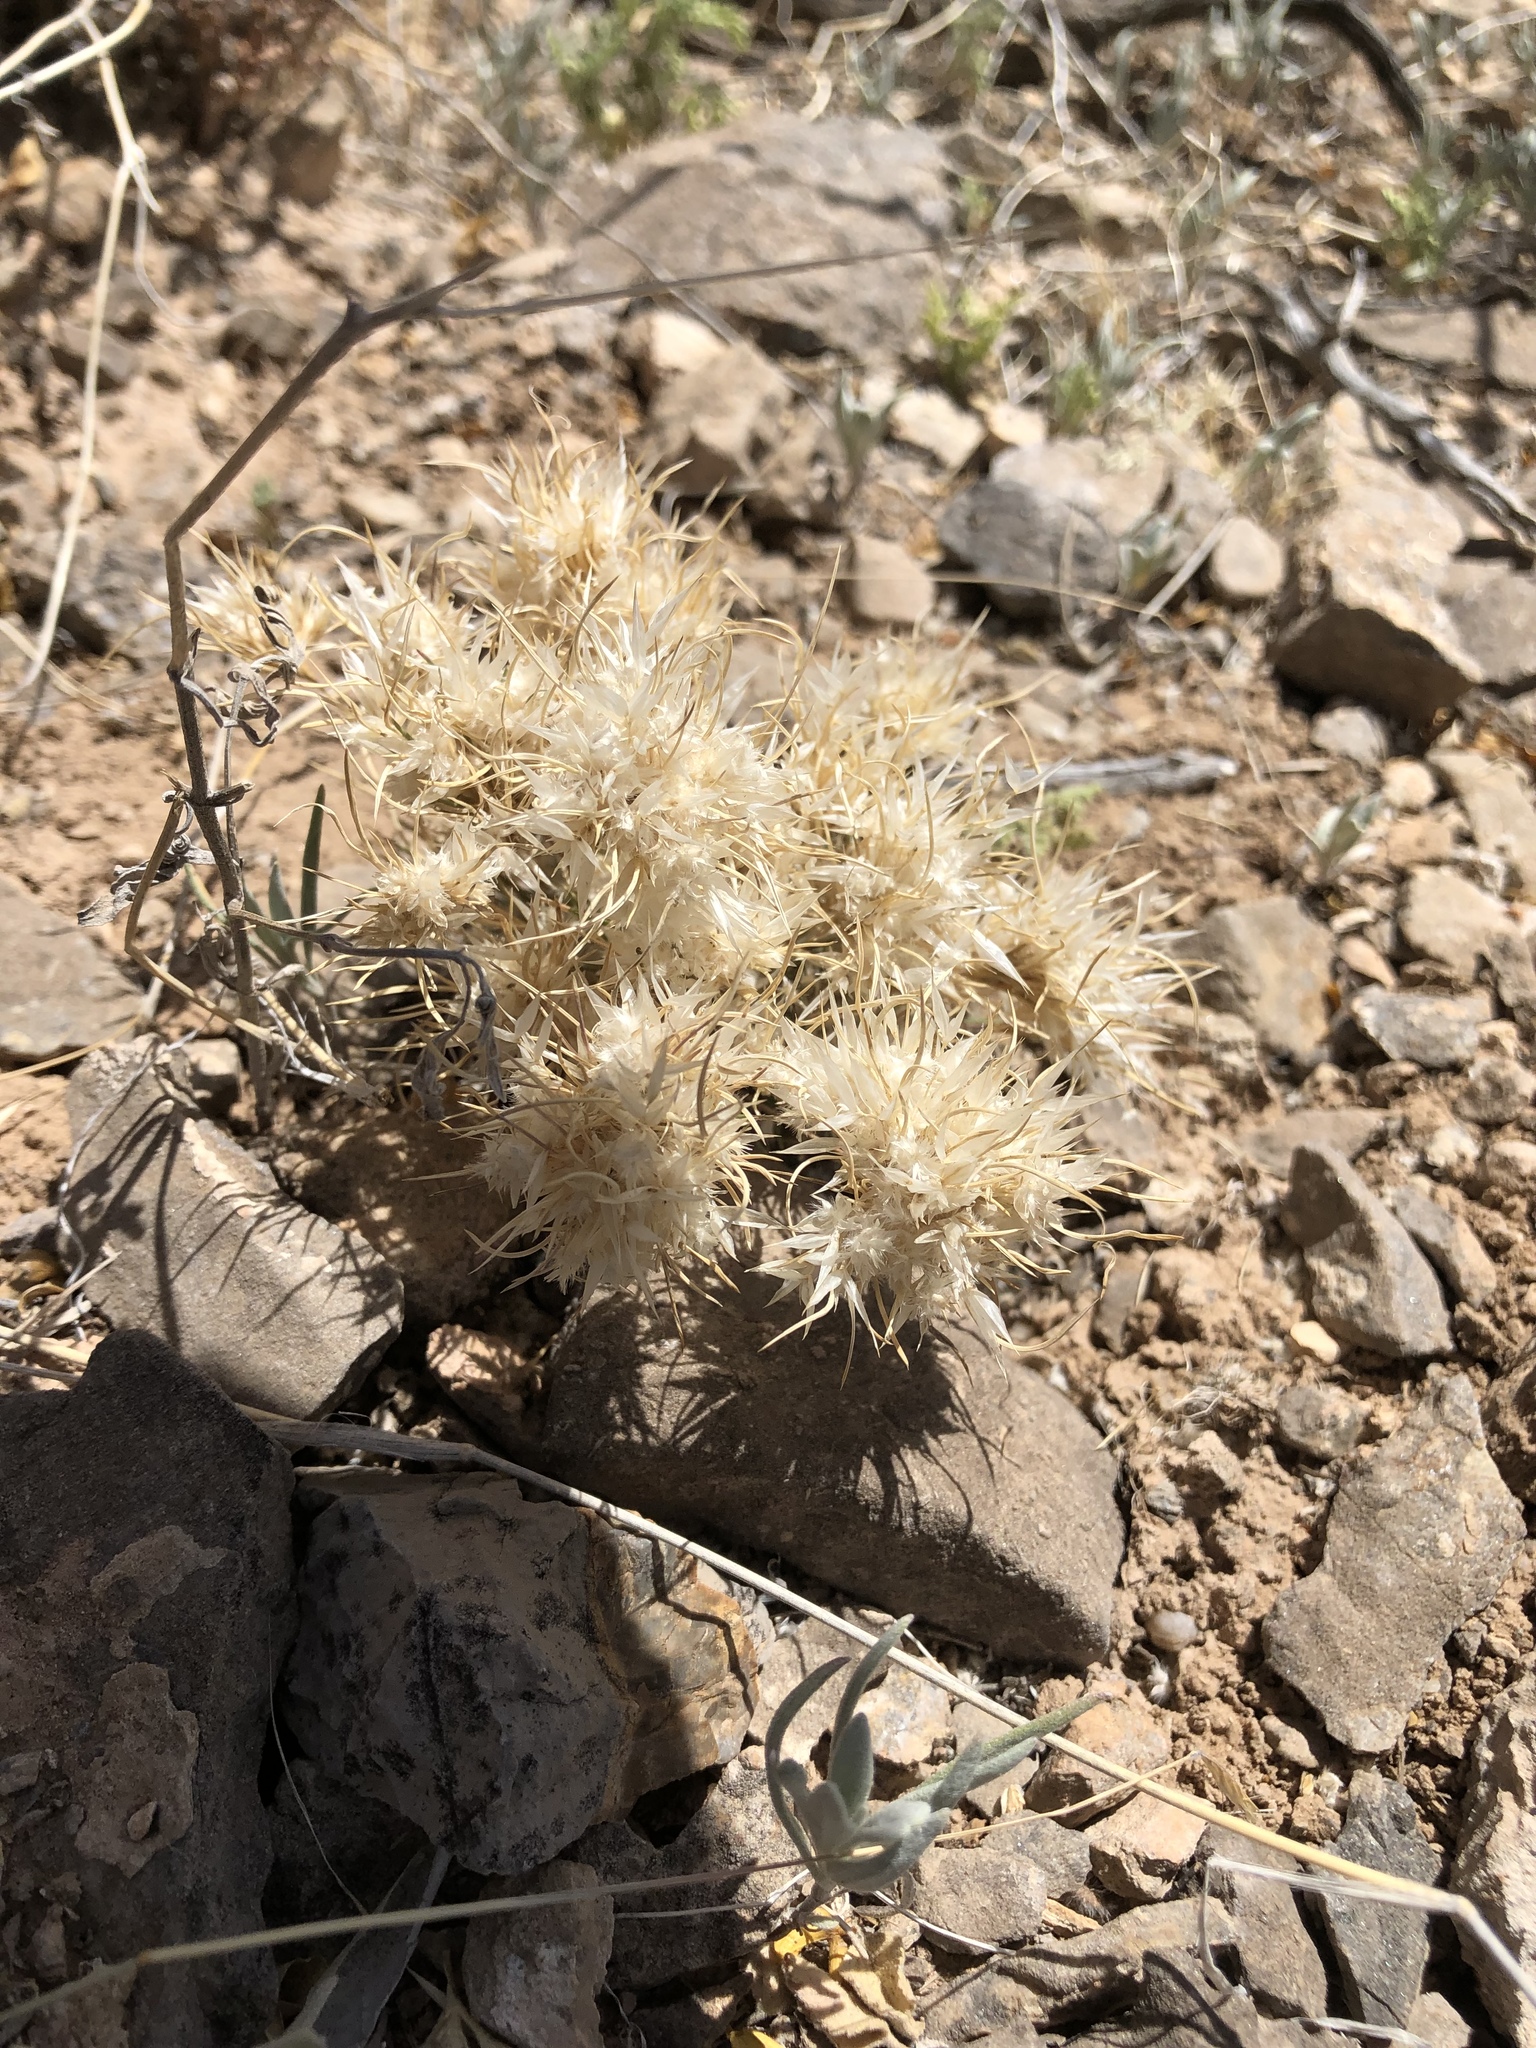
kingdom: Plantae
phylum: Tracheophyta
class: Liliopsida
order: Poales
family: Poaceae
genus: Dasyochloa
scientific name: Dasyochloa pulchella
